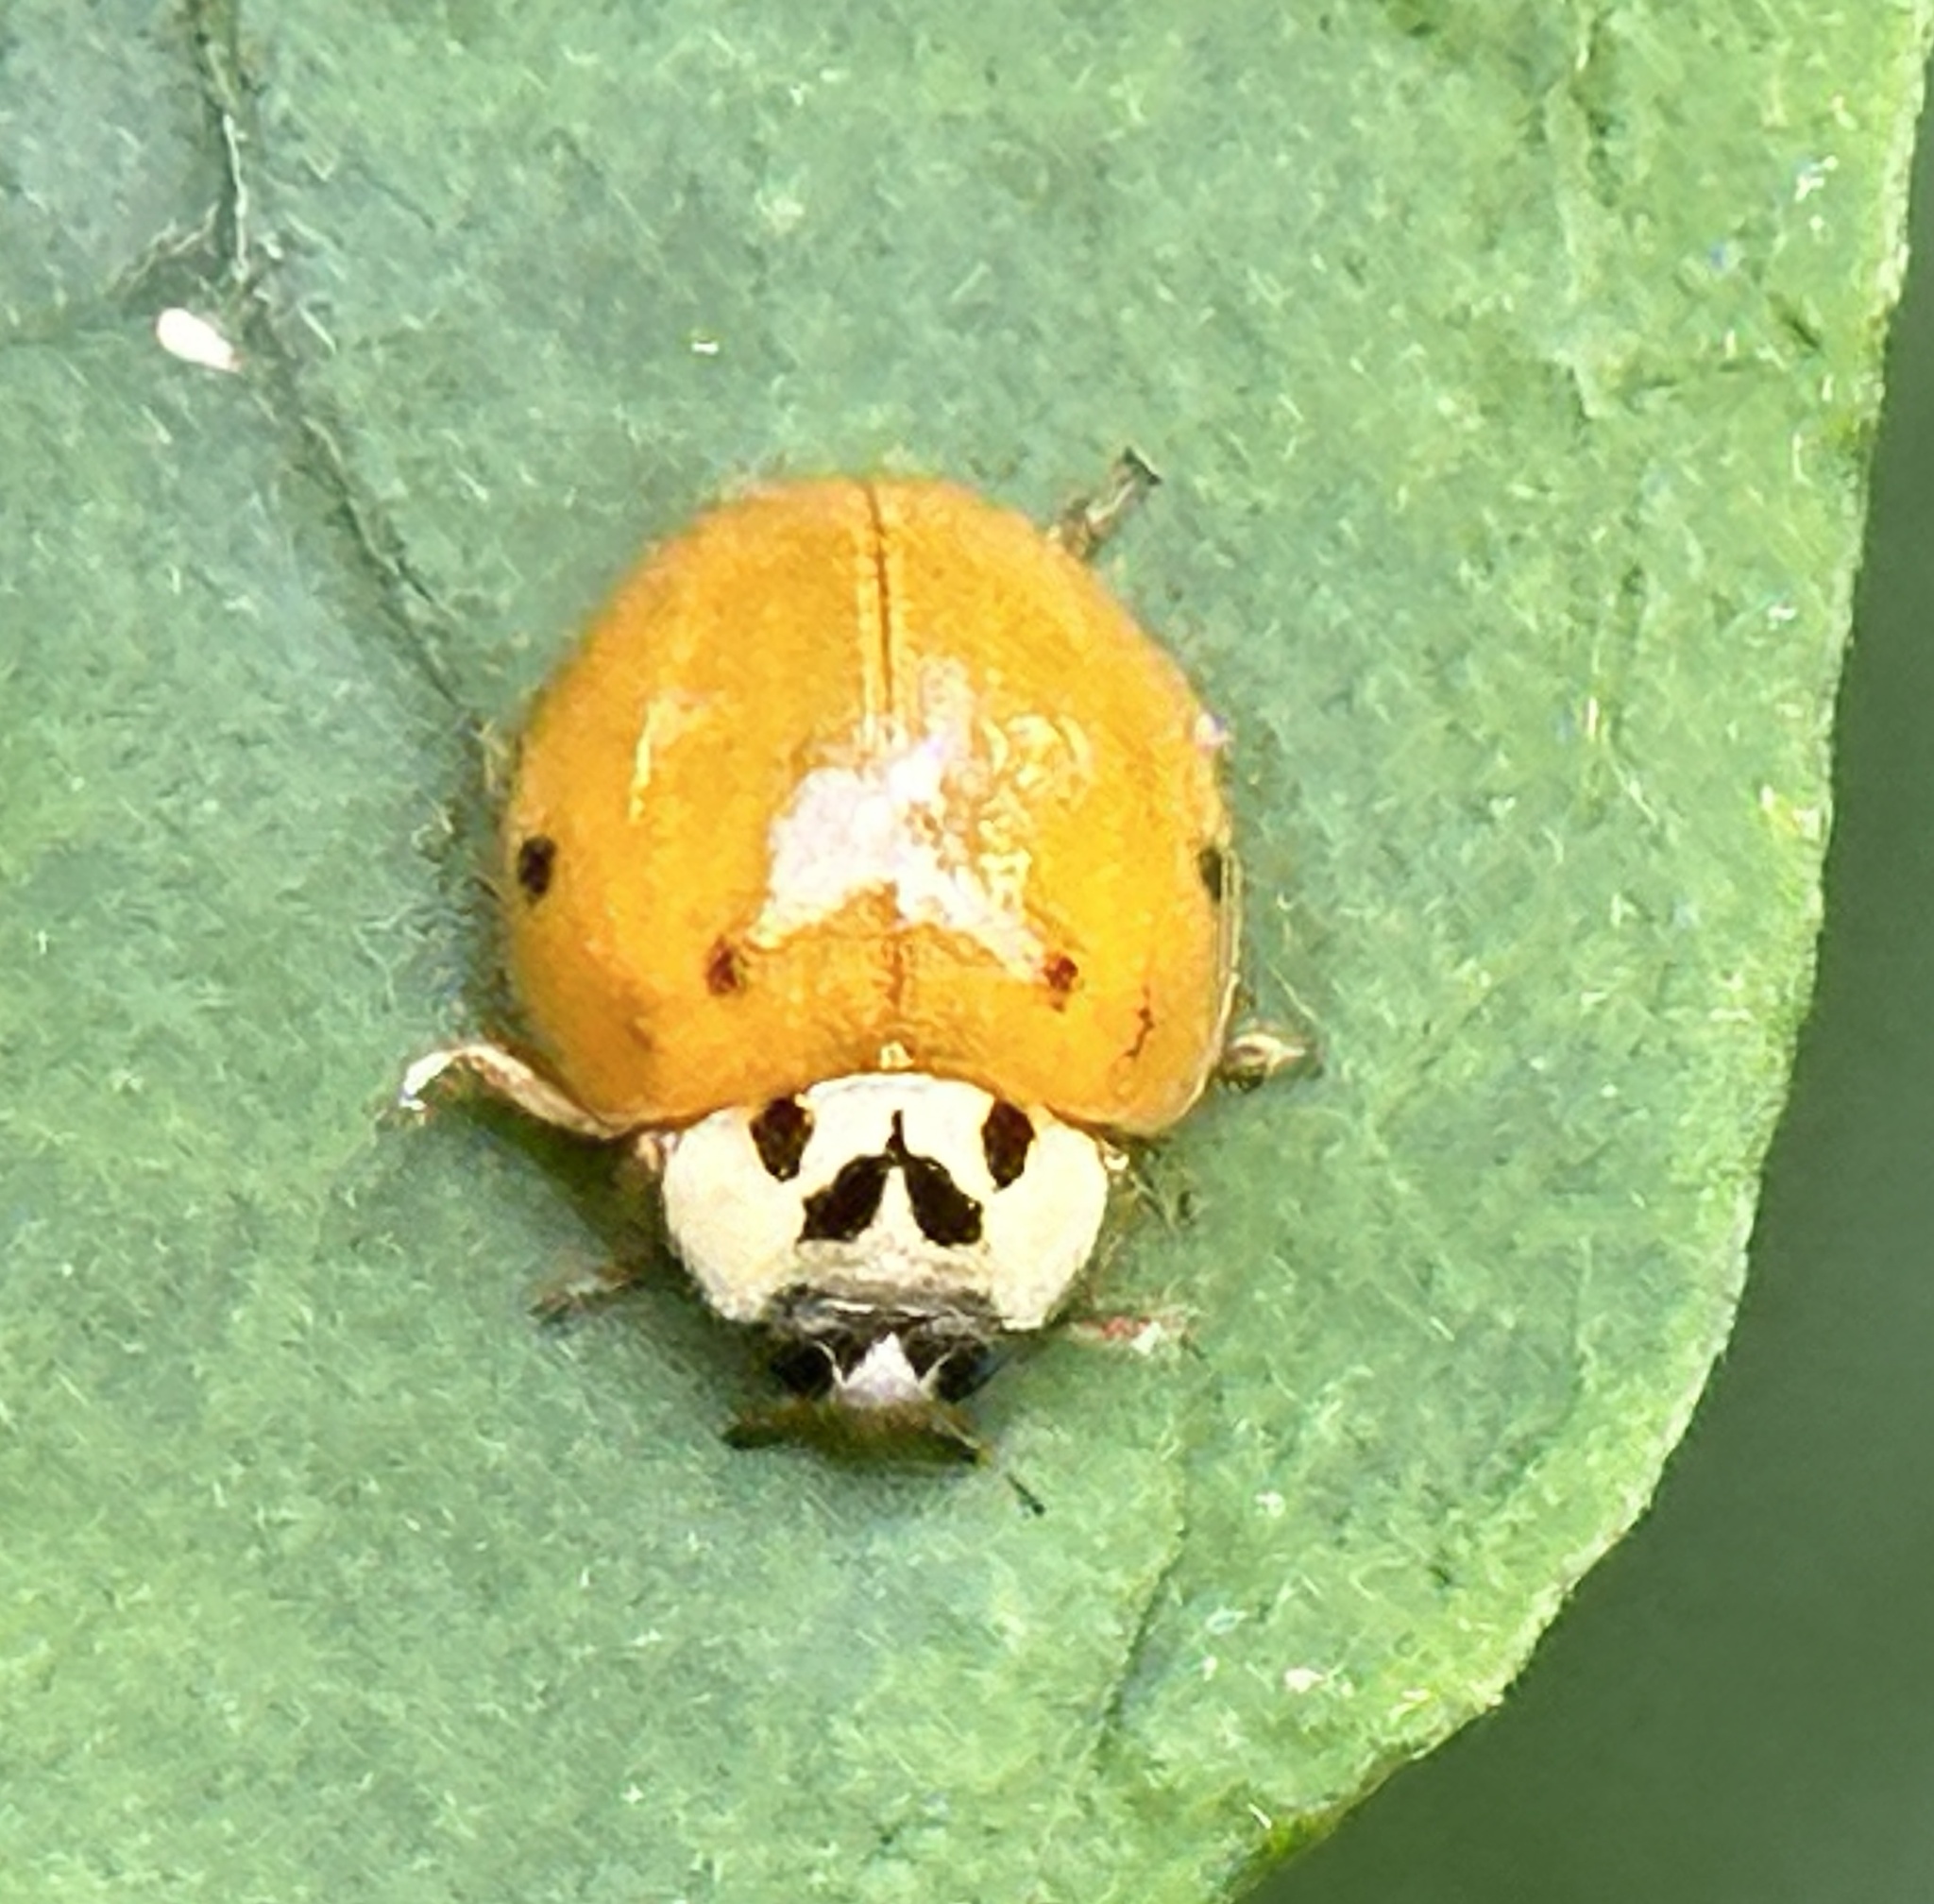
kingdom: Animalia
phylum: Arthropoda
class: Insecta
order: Coleoptera
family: Coccinellidae
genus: Harmonia
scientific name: Harmonia axyridis
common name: Harlequin ladybird
